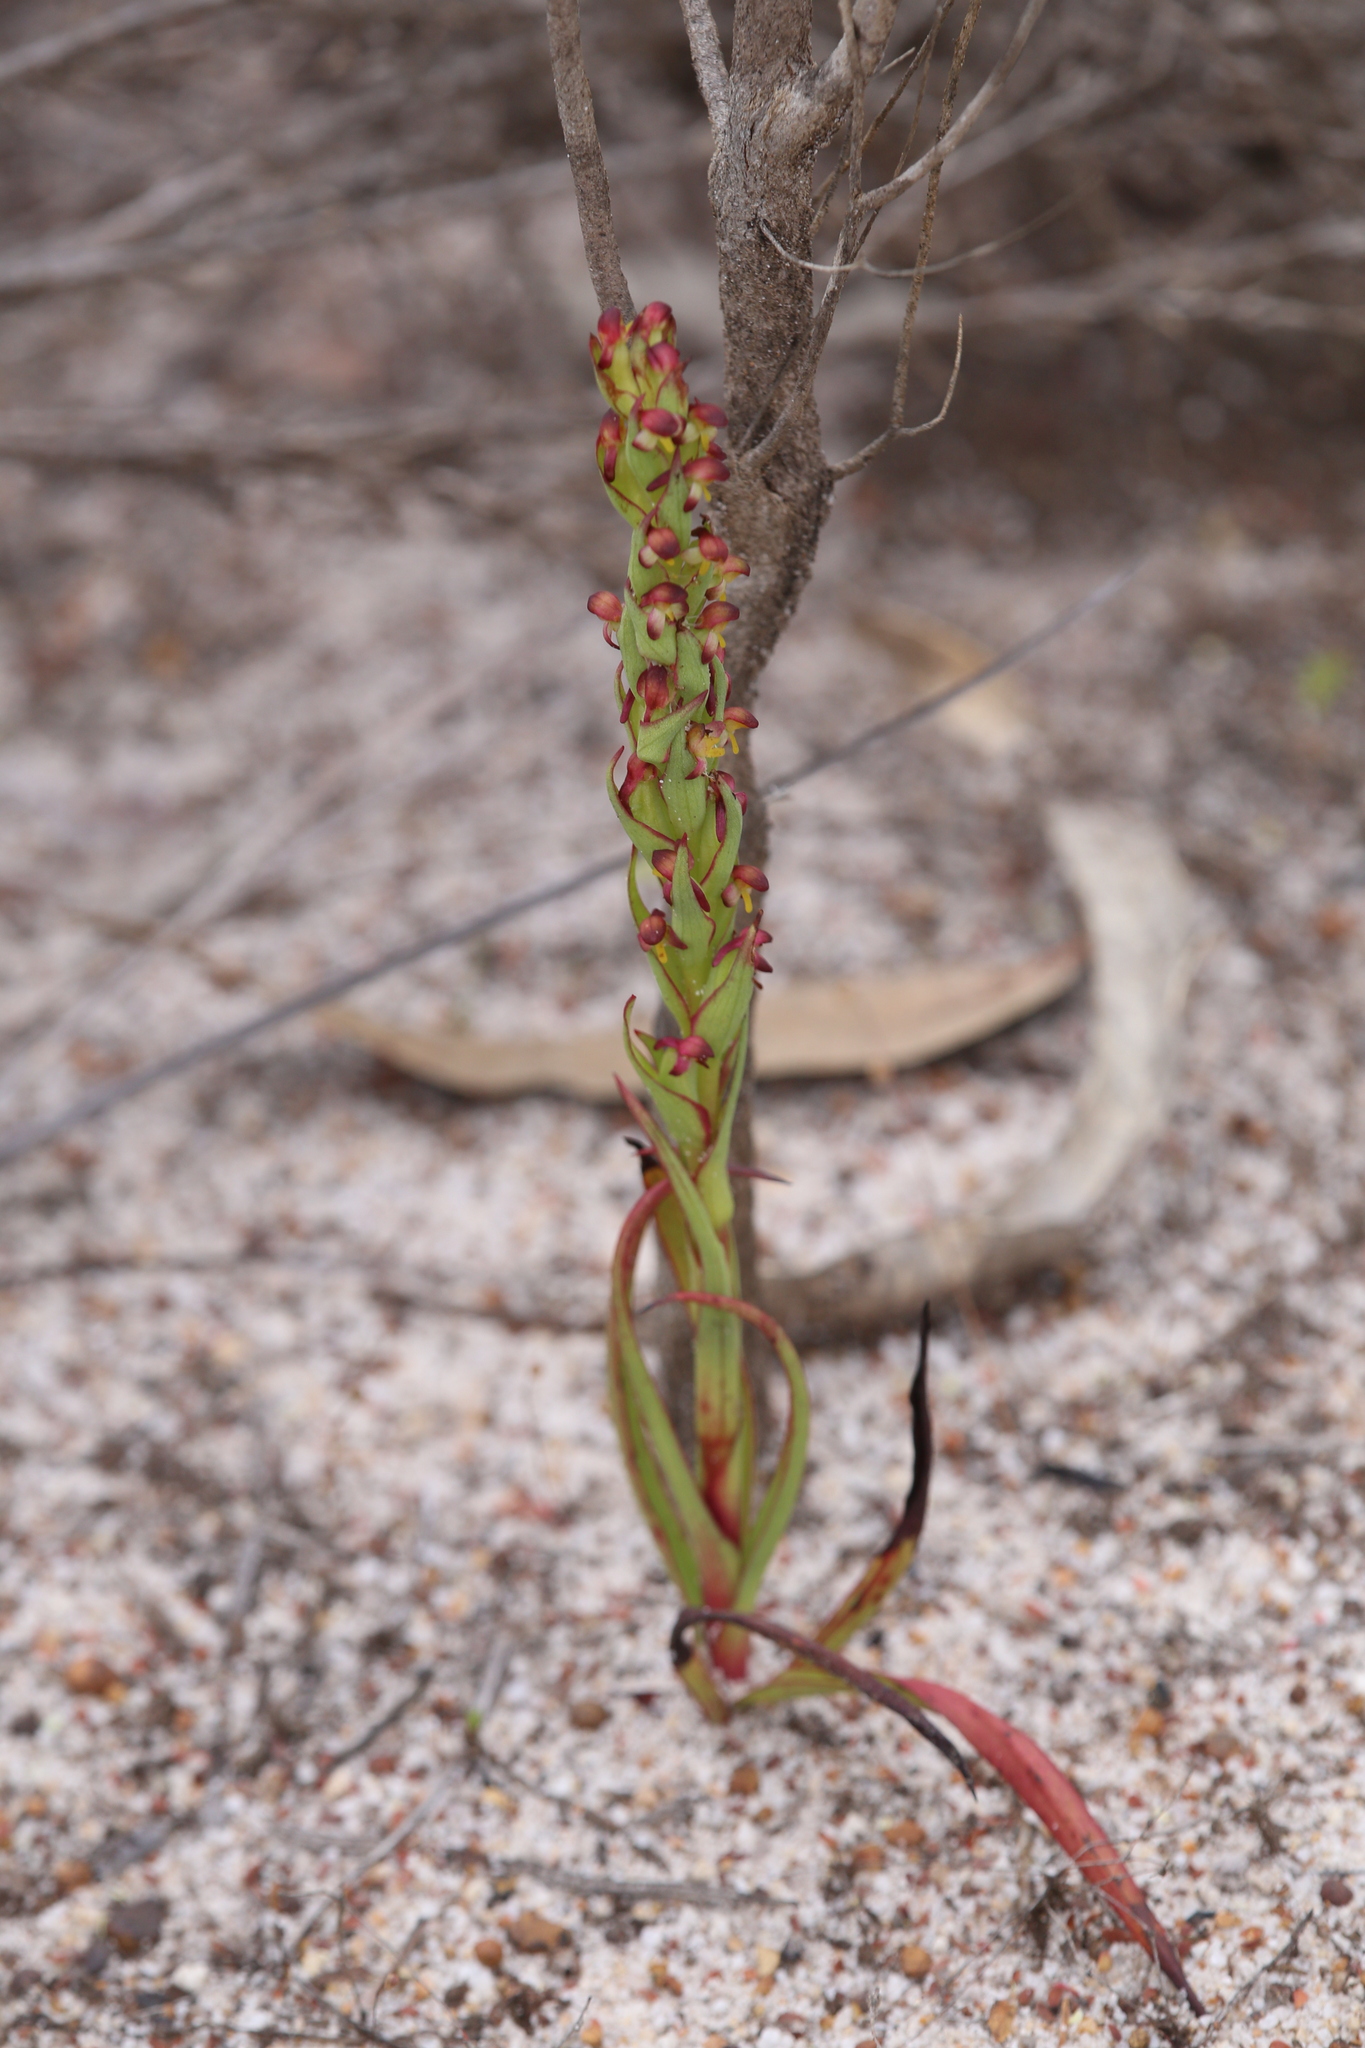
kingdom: Plantae
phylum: Tracheophyta
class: Liliopsida
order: Asparagales
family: Orchidaceae
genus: Disa
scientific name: Disa bracteata
